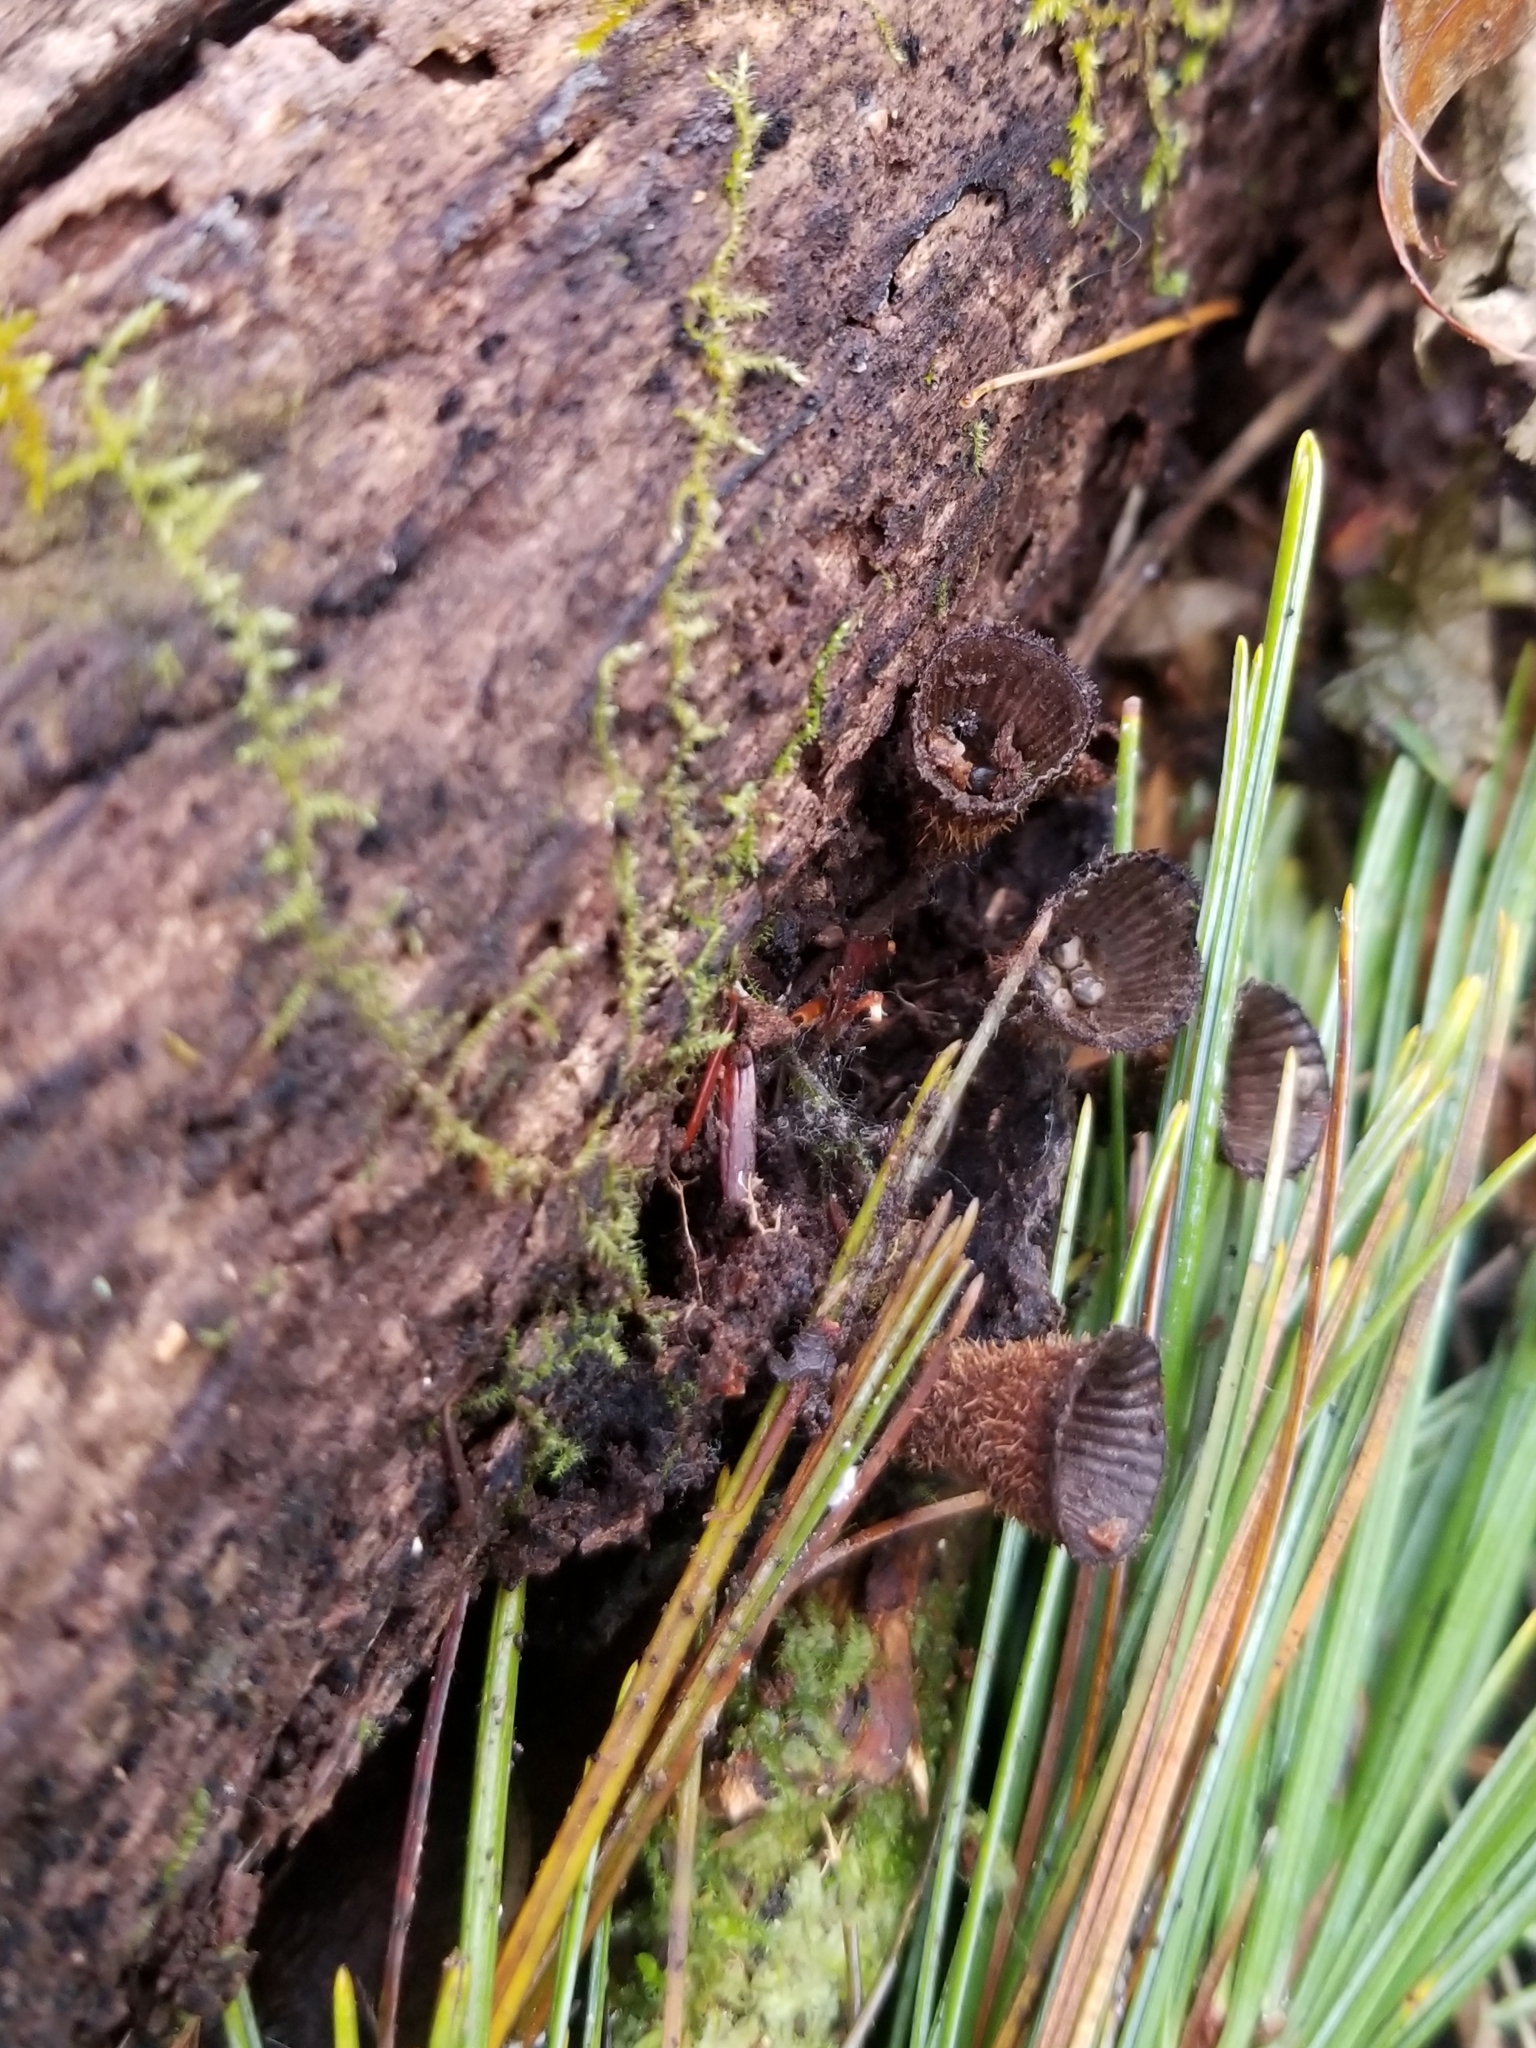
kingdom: Fungi
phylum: Basidiomycota
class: Agaricomycetes
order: Agaricales
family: Agaricaceae
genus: Cyathus
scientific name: Cyathus striatus
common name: Fluted bird's nest
